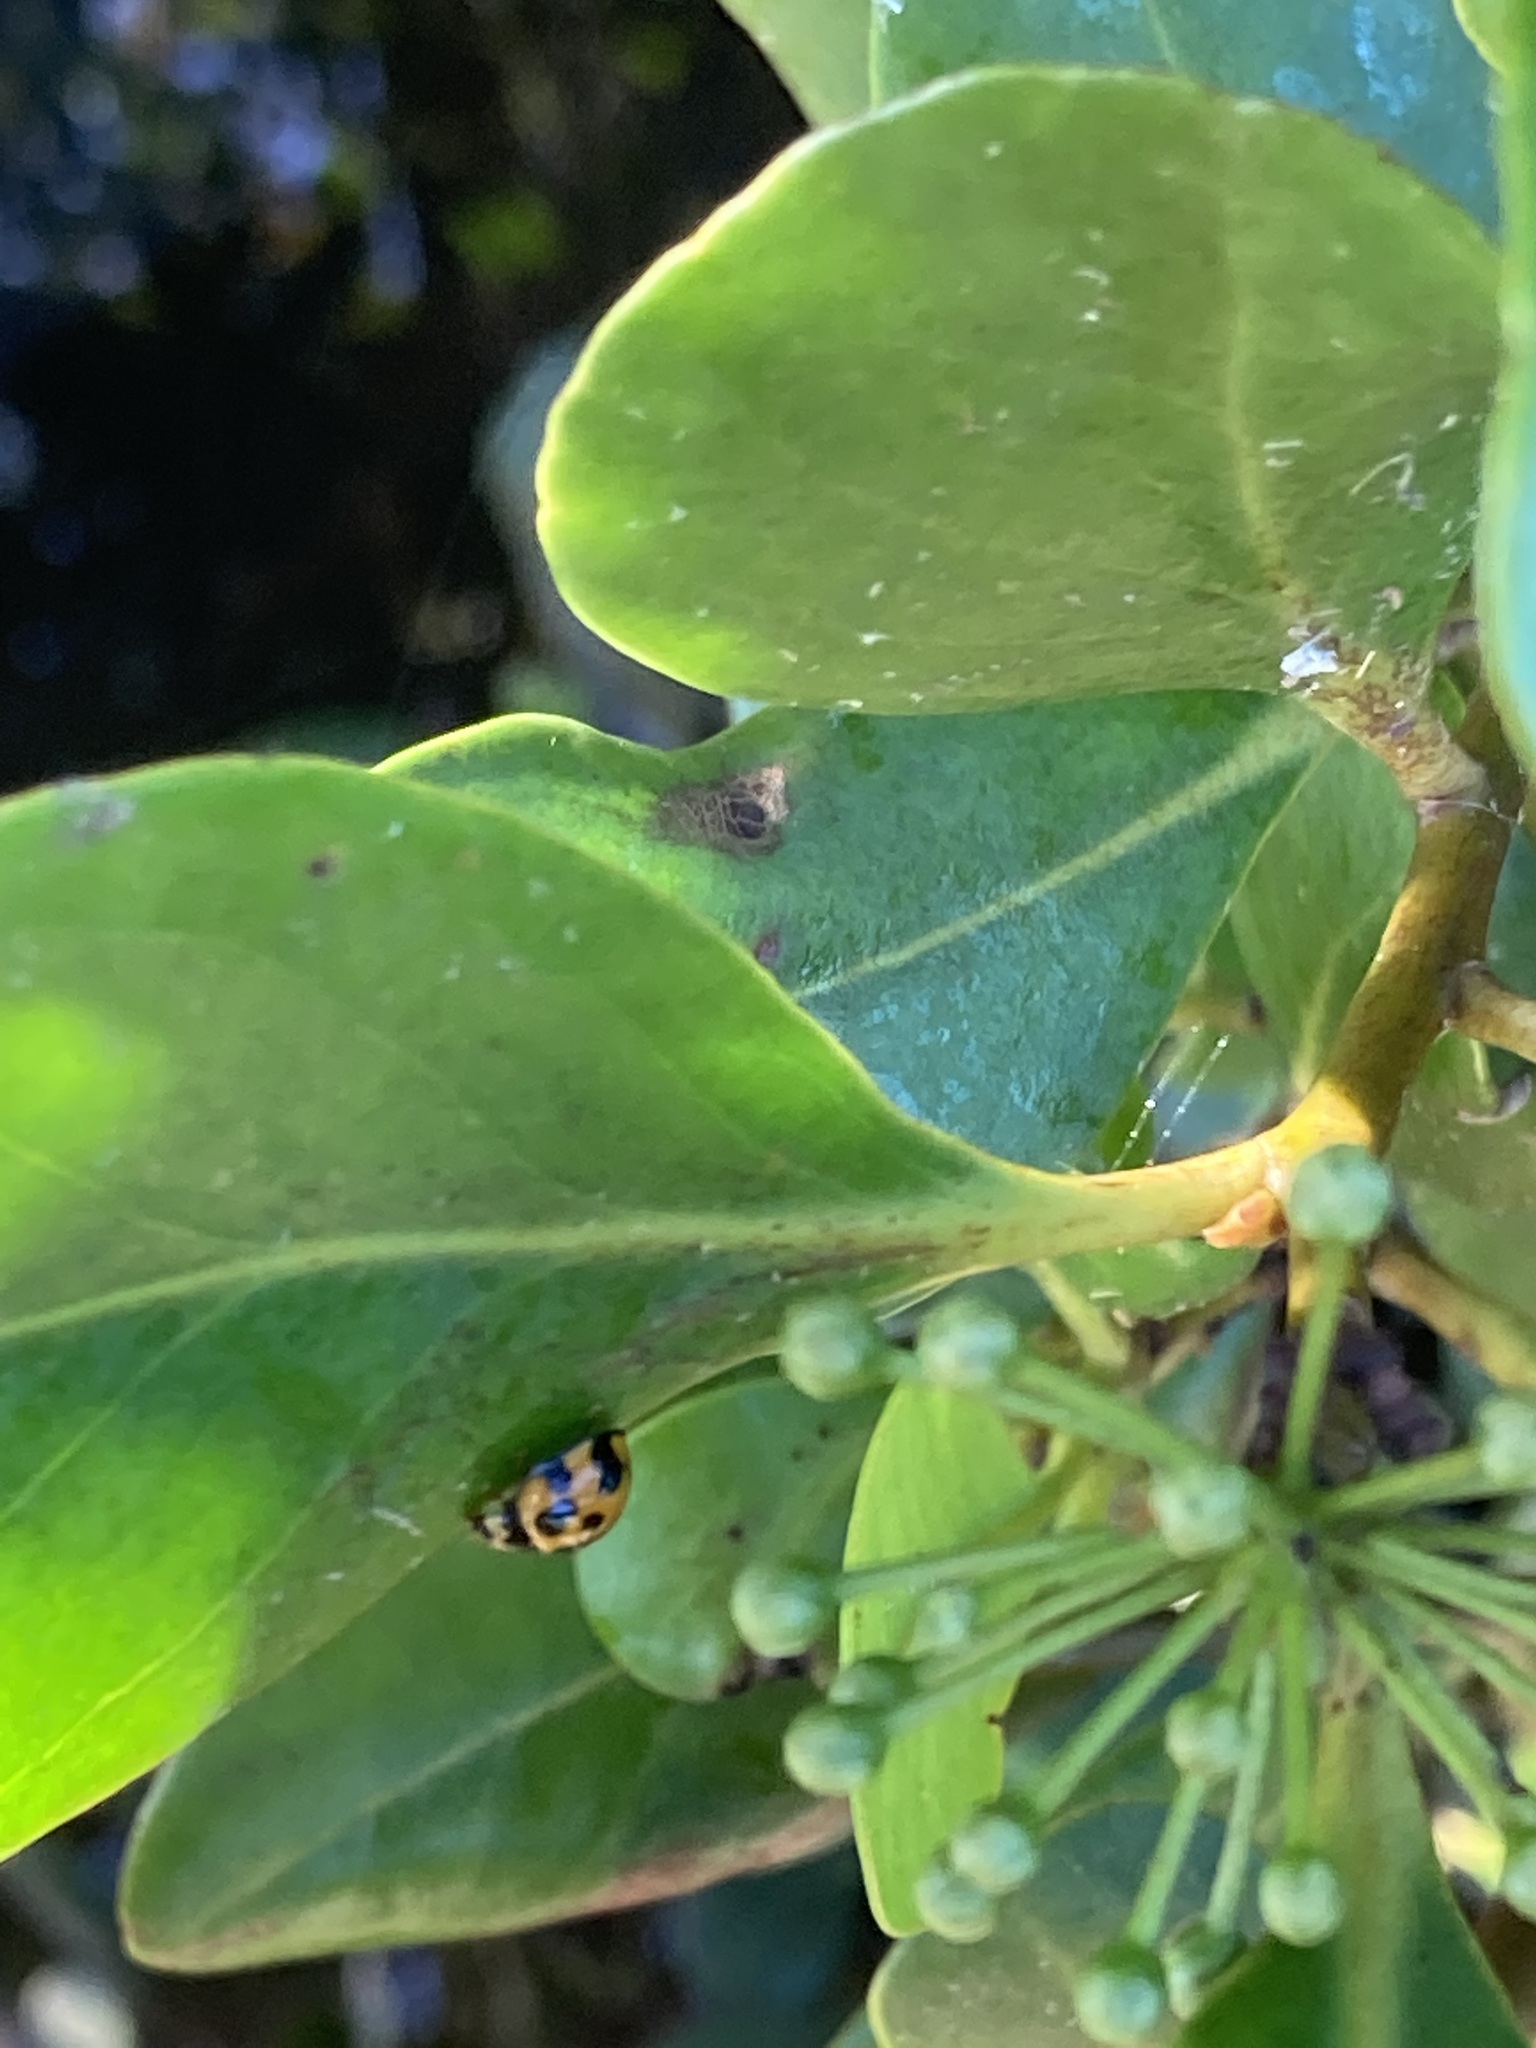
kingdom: Animalia
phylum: Arthropoda
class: Insecta
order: Coleoptera
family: Coccinellidae
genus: Coelophora
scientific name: Coelophora inaequalis
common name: Common australian lady beetle
